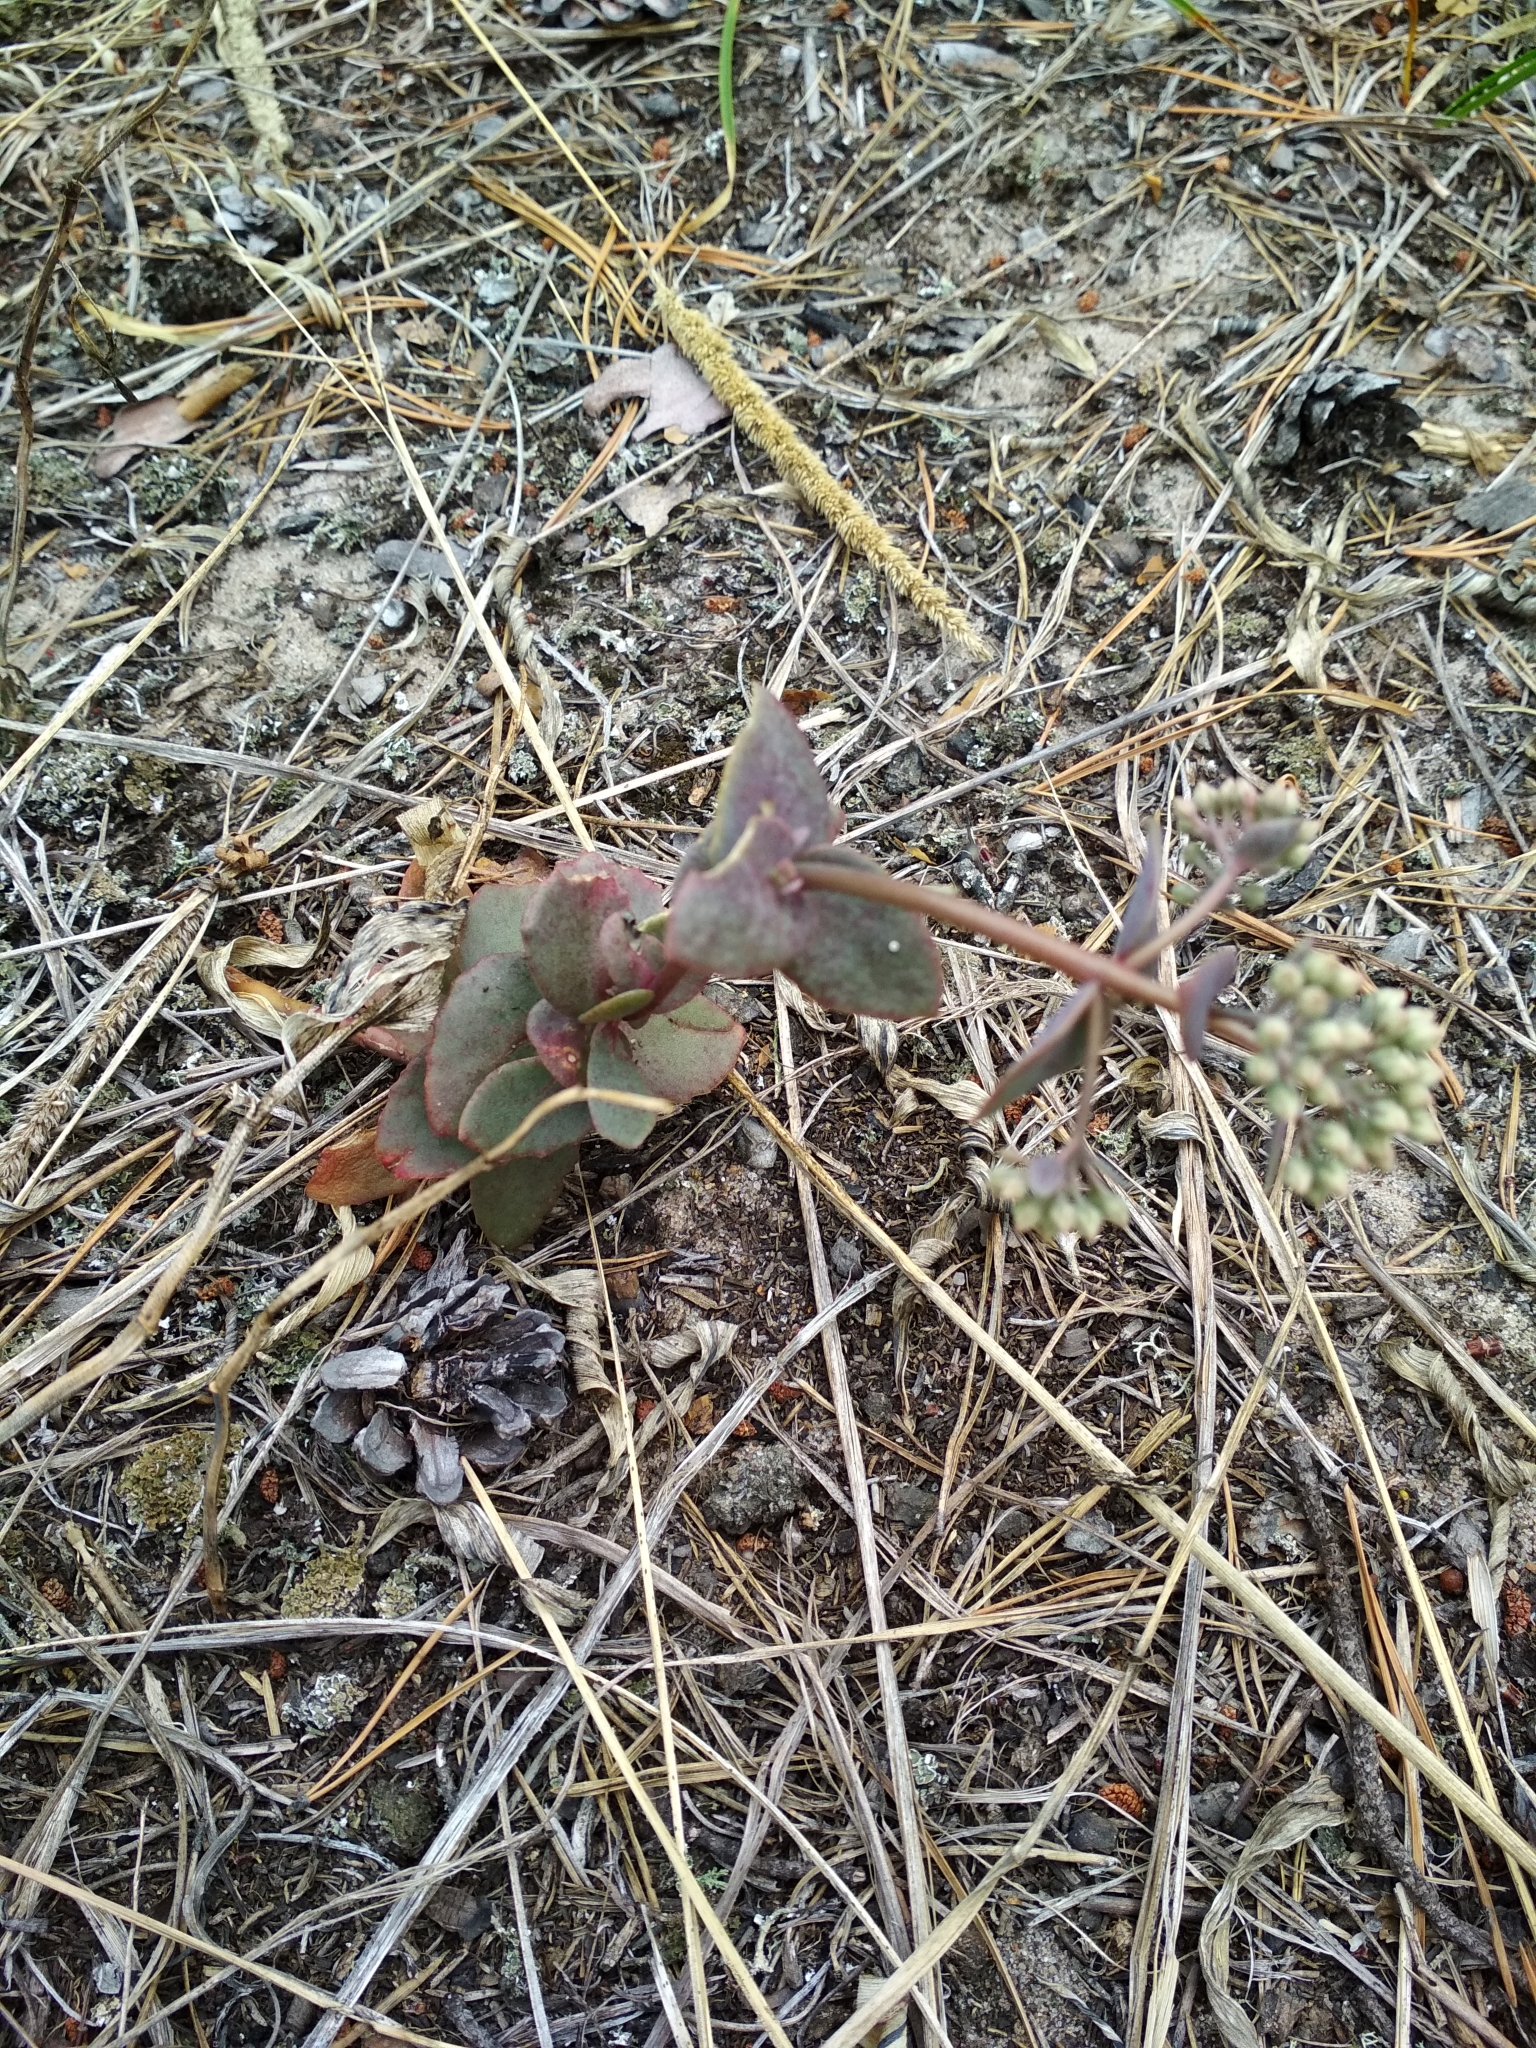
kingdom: Plantae
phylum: Tracheophyta
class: Magnoliopsida
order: Saxifragales
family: Crassulaceae
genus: Hylotelephium
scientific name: Hylotelephium maximum
